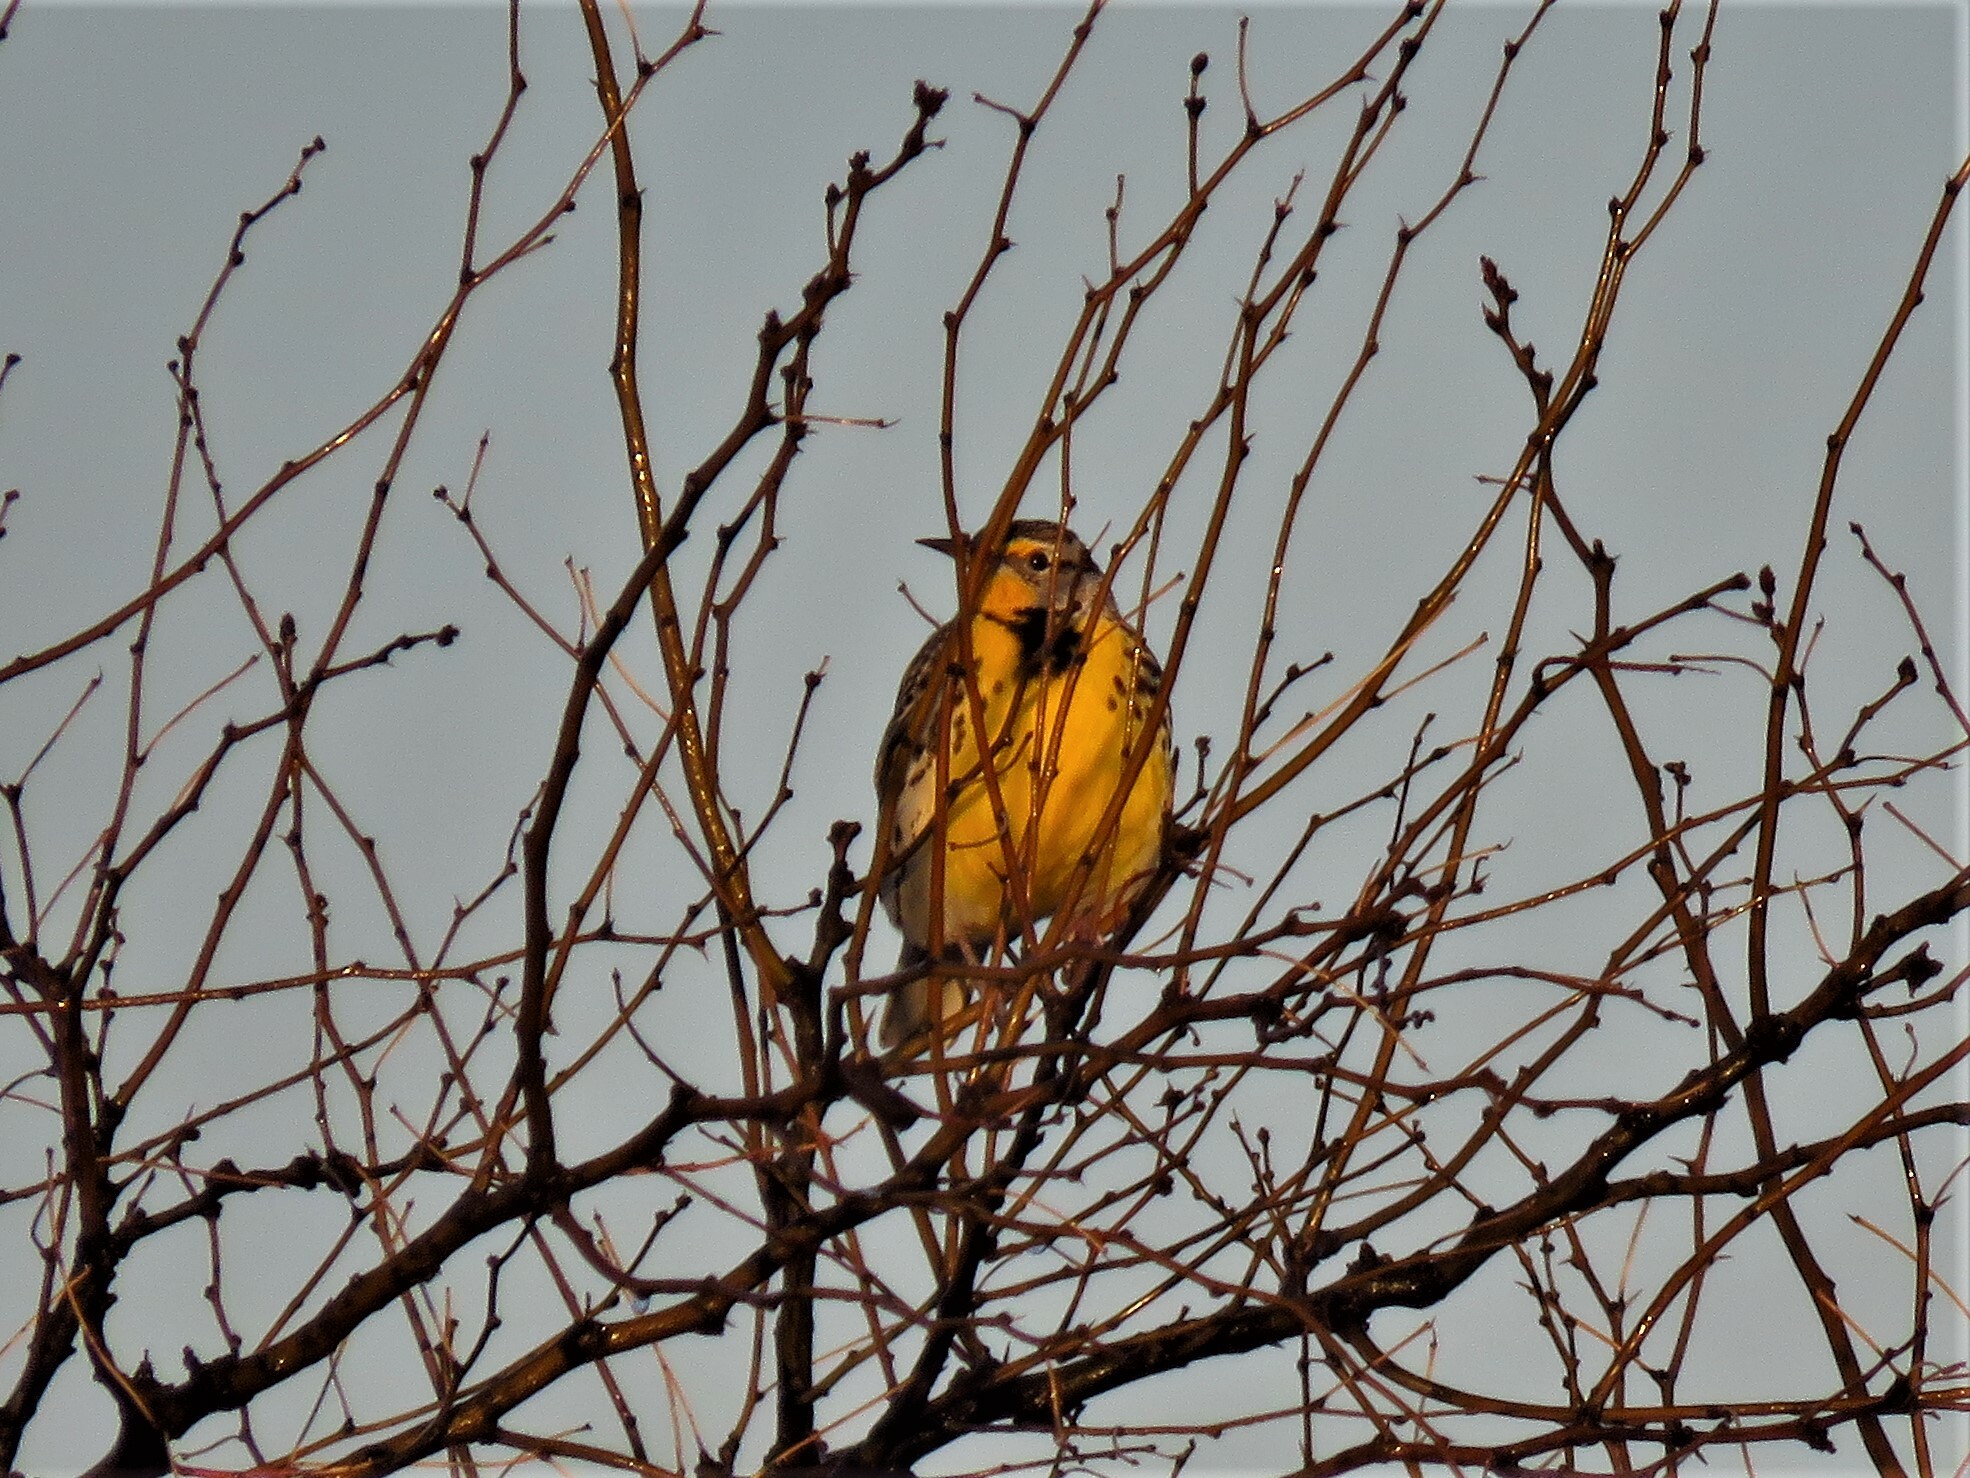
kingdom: Animalia
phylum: Chordata
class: Aves
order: Passeriformes
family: Icteridae
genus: Sturnella
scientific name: Sturnella neglecta
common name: Western meadowlark
